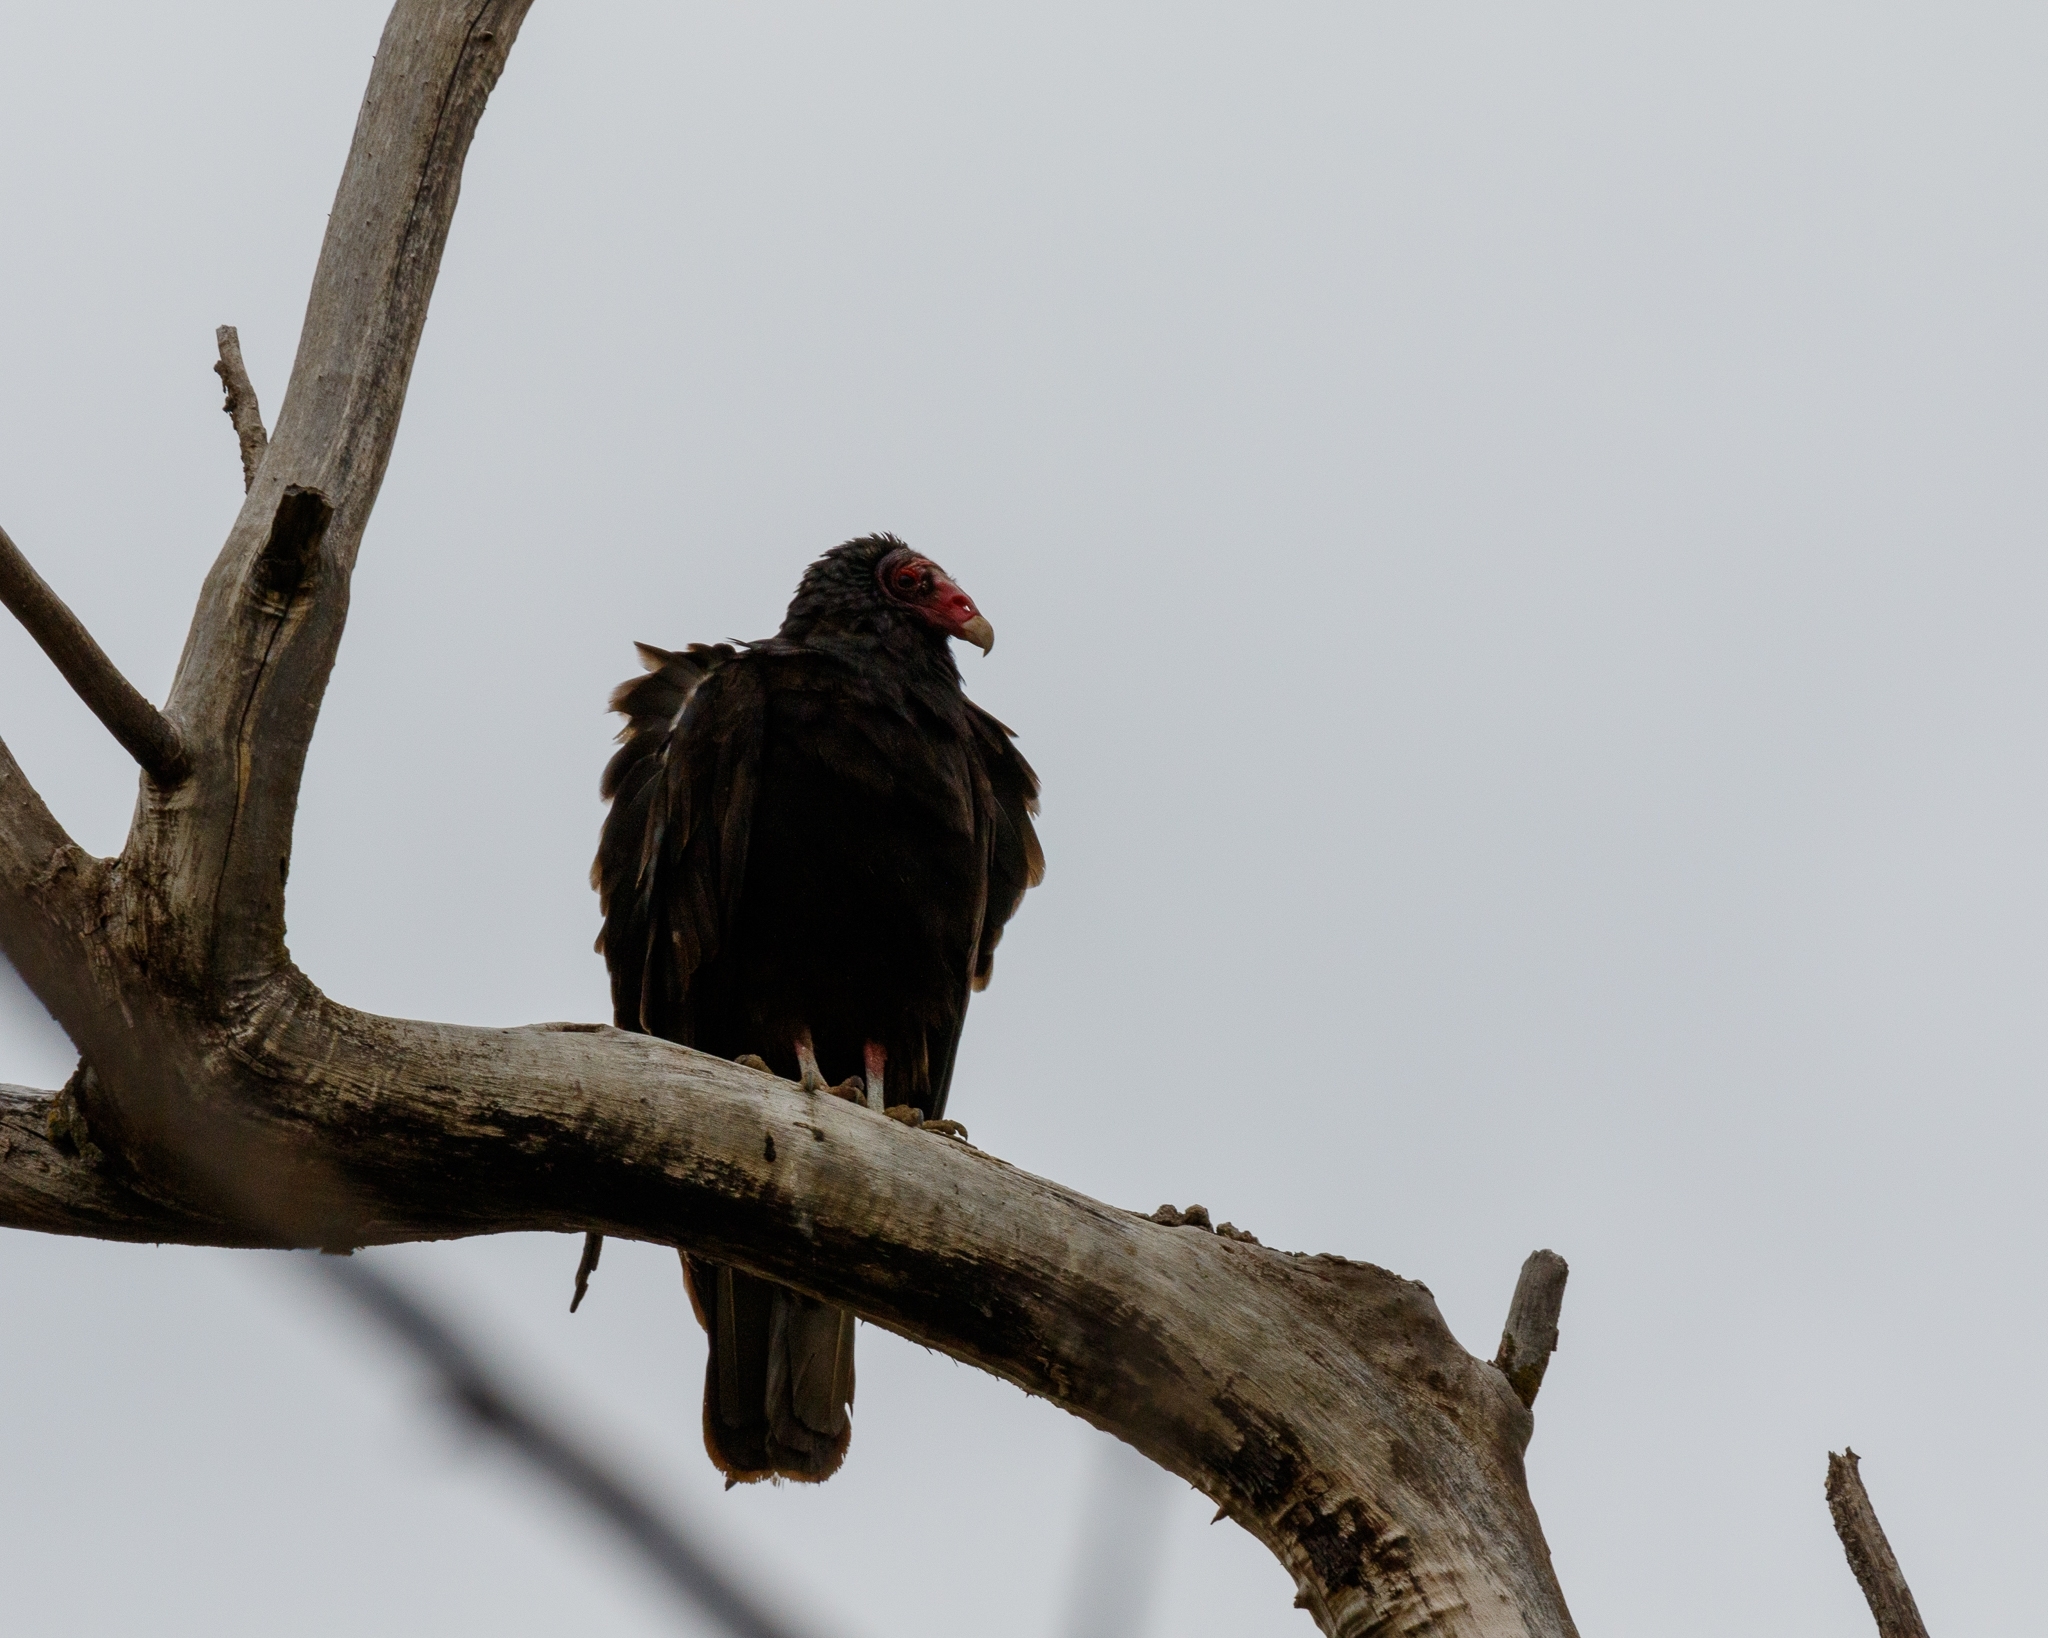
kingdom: Animalia
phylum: Chordata
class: Aves
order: Accipitriformes
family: Cathartidae
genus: Cathartes
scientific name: Cathartes aura
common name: Turkey vulture
